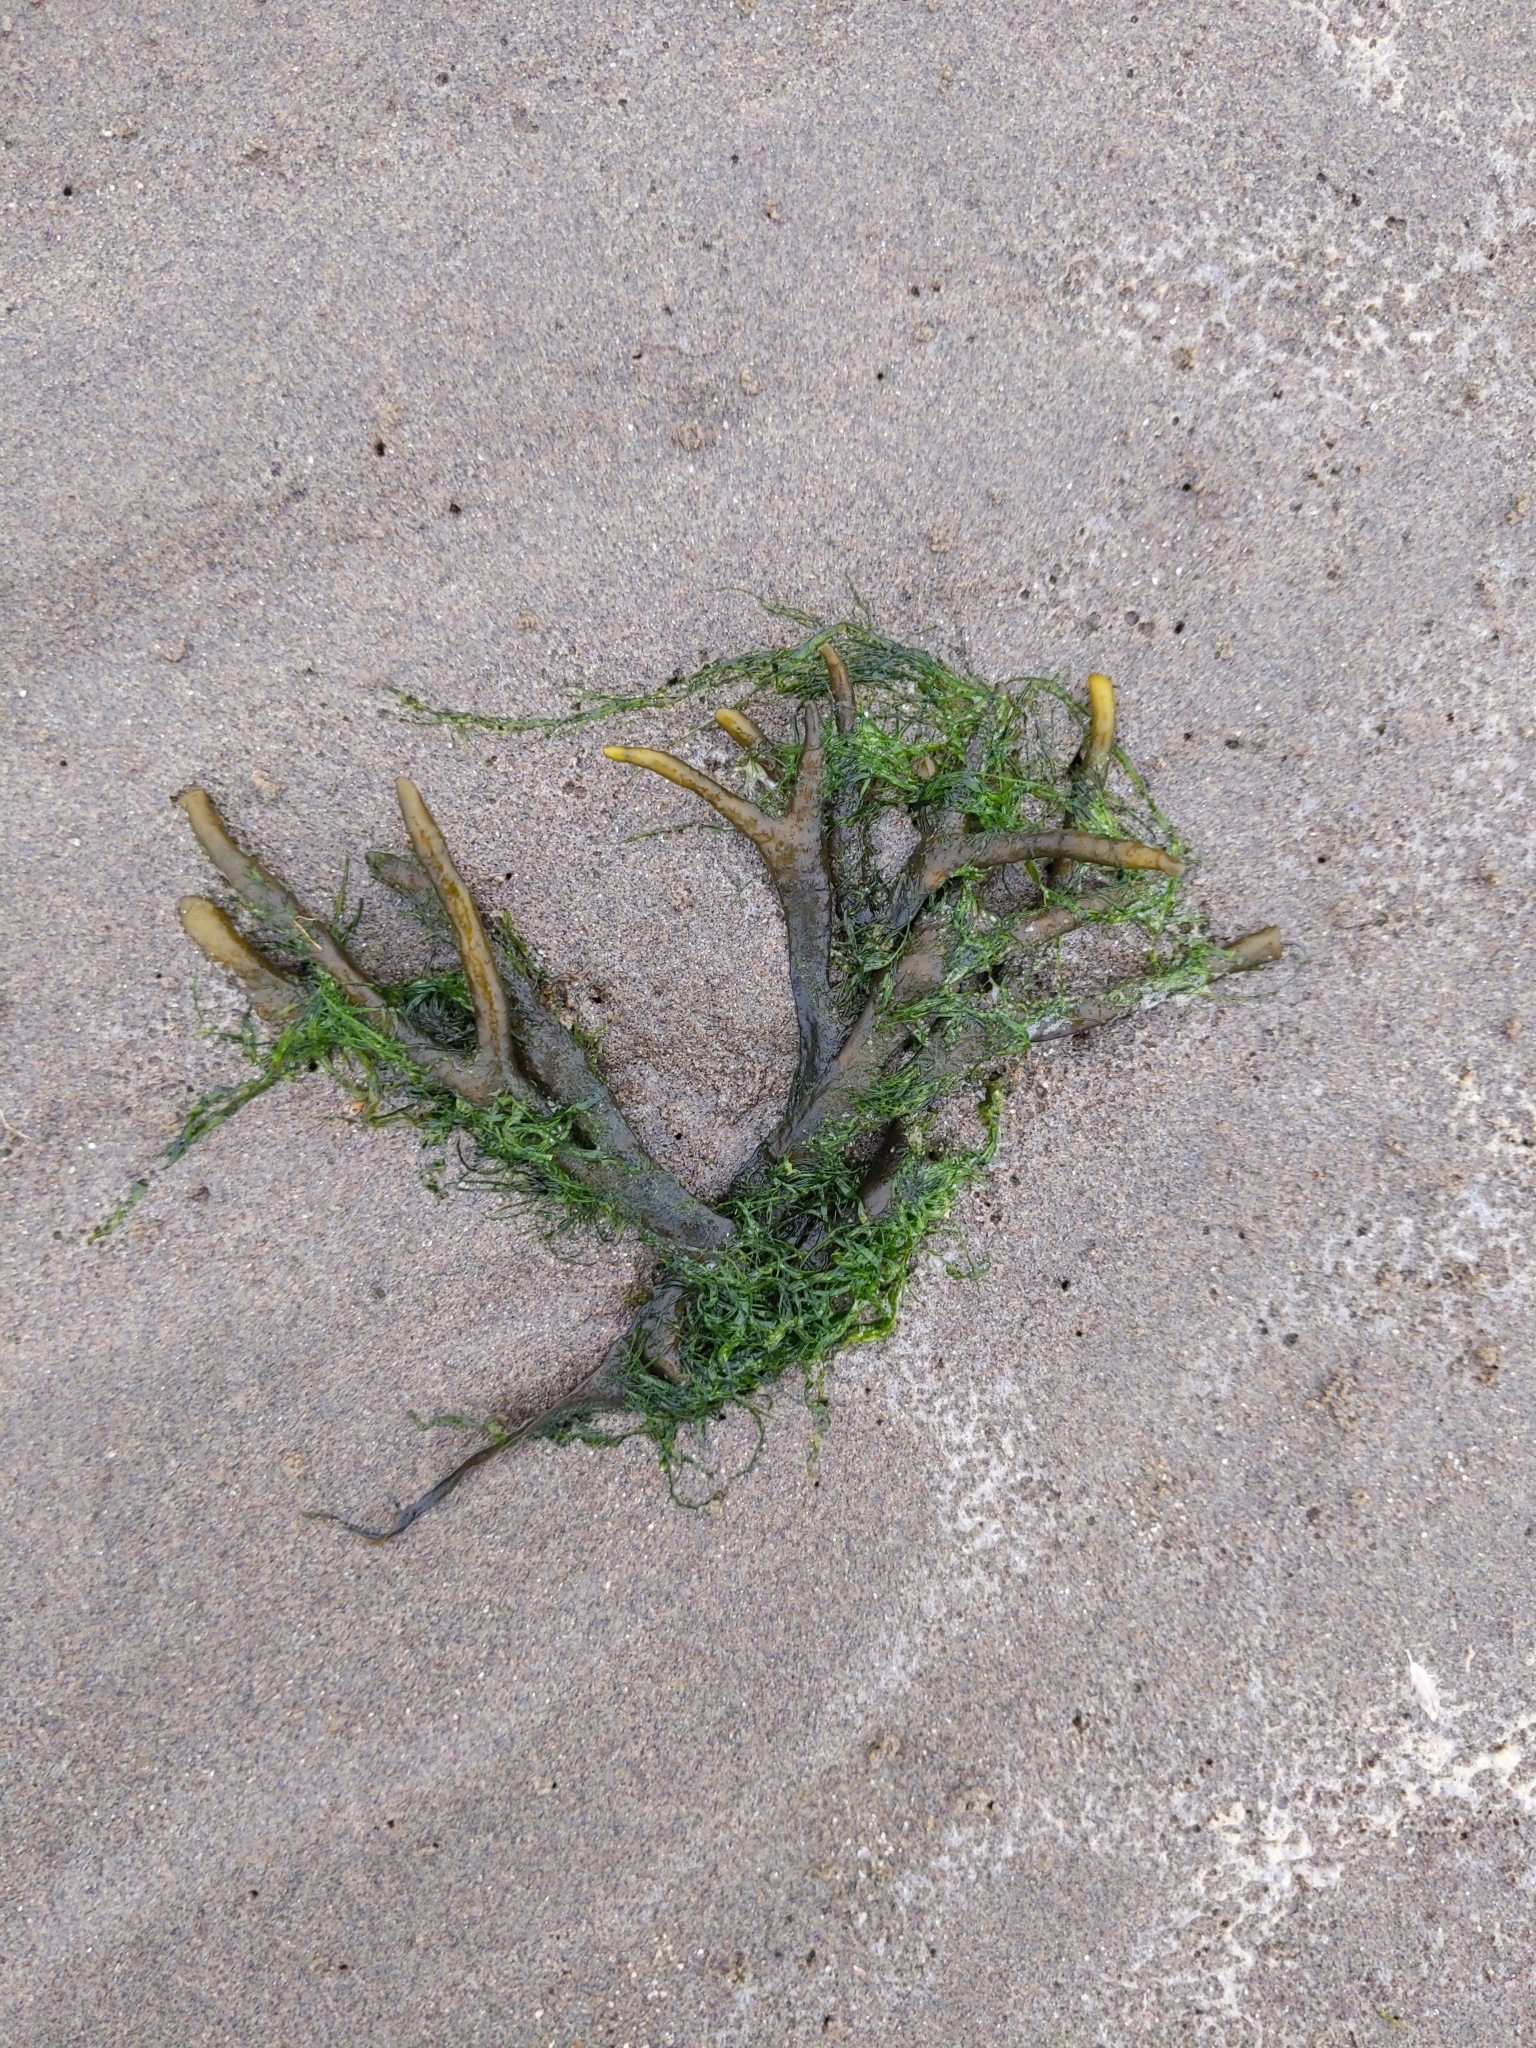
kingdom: Chromista
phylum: Ochrophyta
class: Phaeophyceae
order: Fucales
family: Fucaceae
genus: Fucus
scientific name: Fucus distichus
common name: Rockweed
